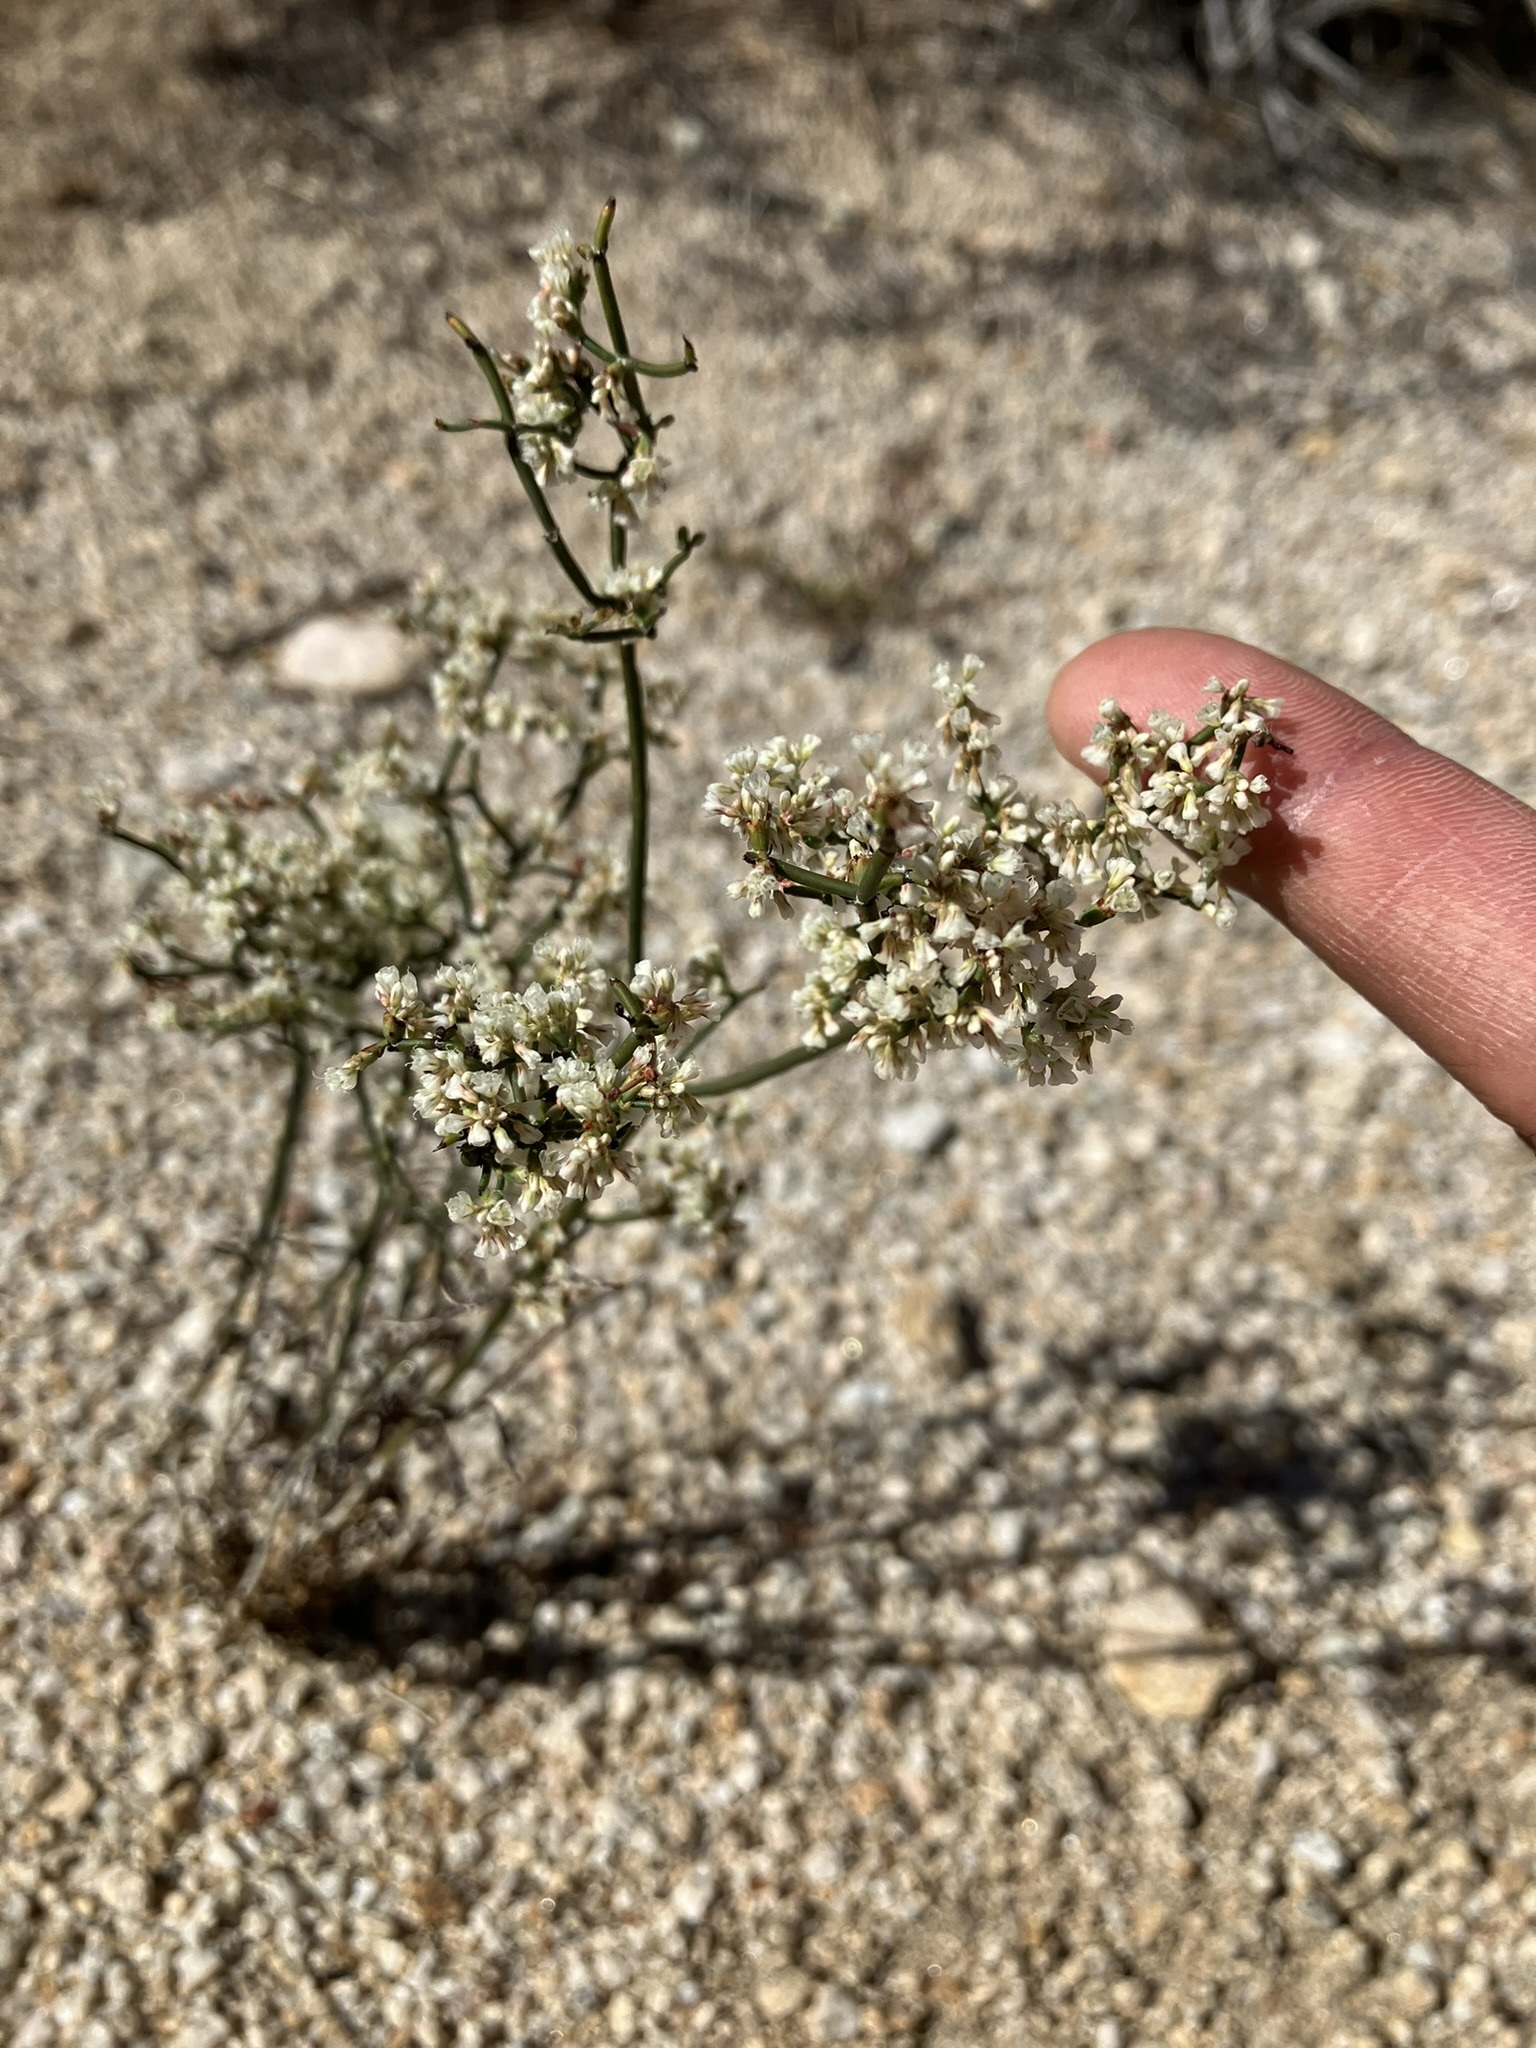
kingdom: Plantae
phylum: Tracheophyta
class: Magnoliopsida
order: Caryophyllales
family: Polygonaceae
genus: Eriogonum
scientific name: Eriogonum plumatella
